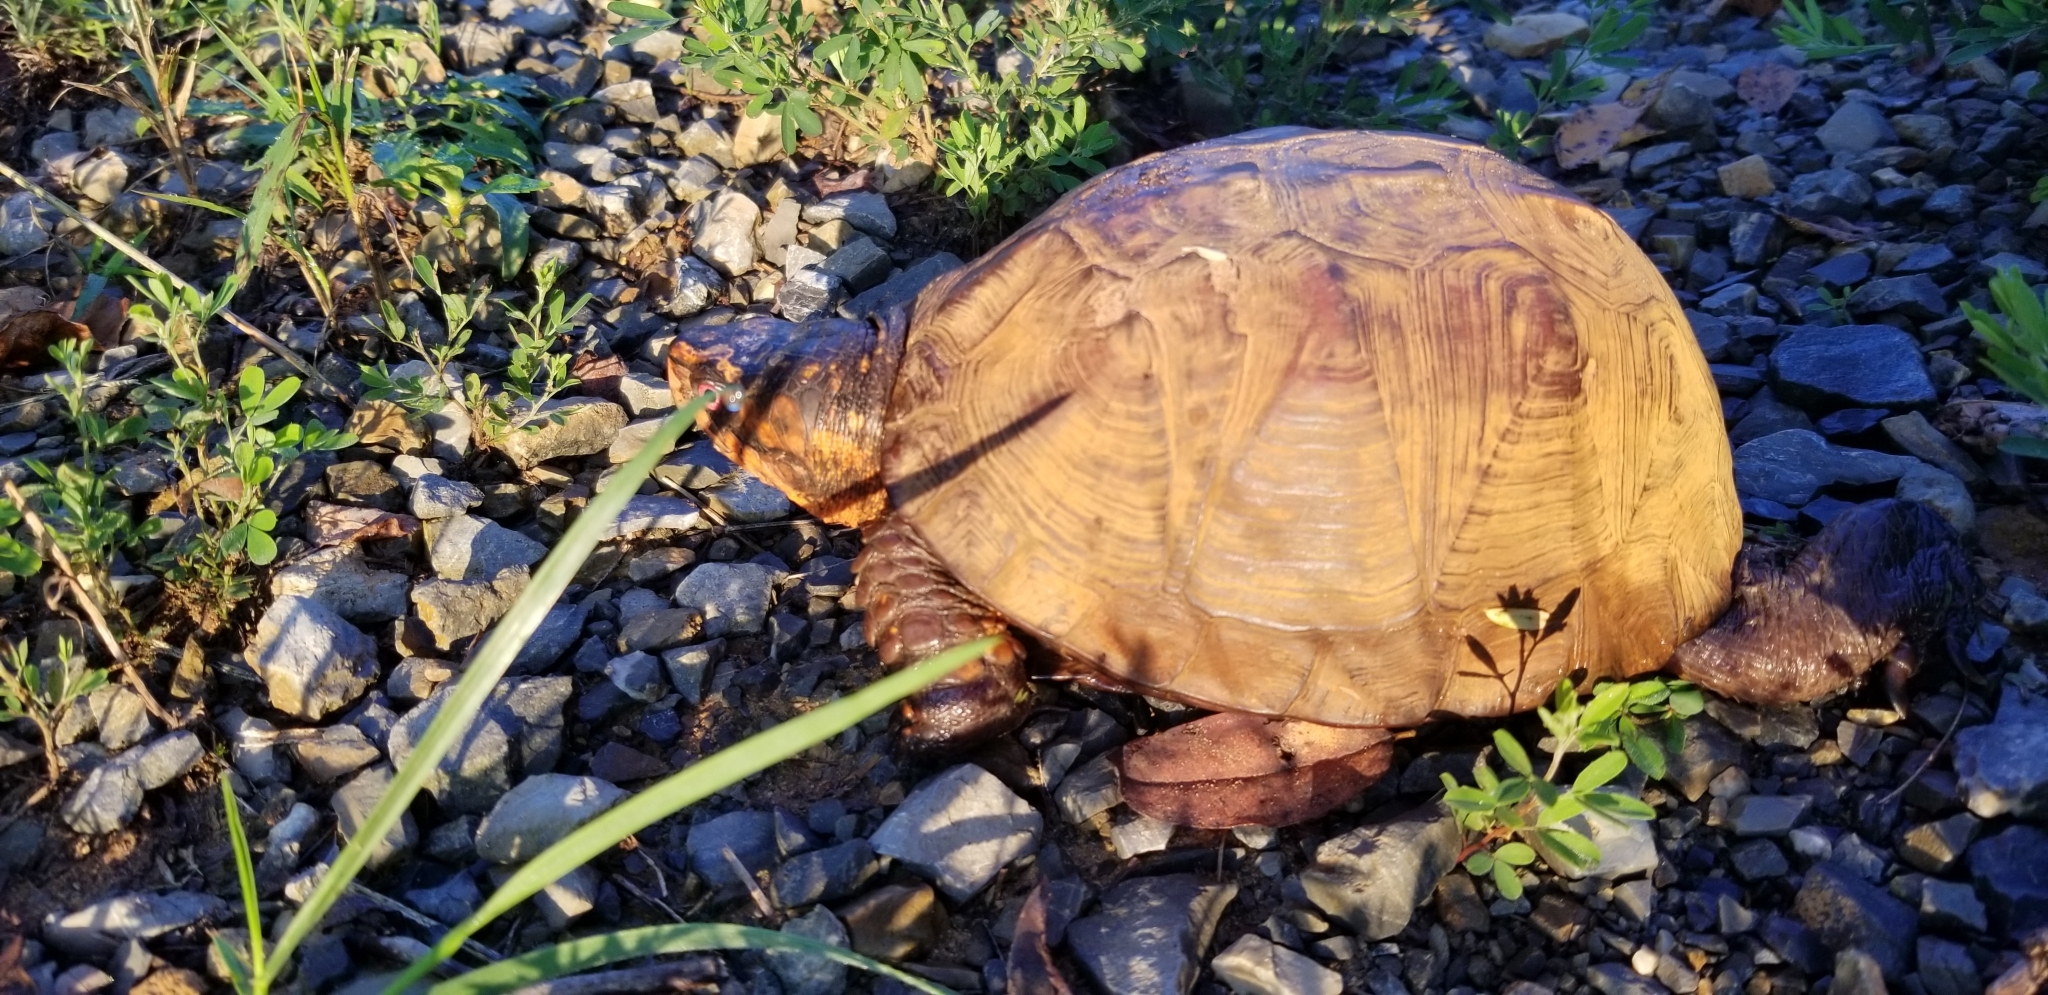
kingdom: Animalia
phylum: Chordata
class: Testudines
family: Emydidae
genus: Terrapene
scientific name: Terrapene carolina
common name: Common box turtle
